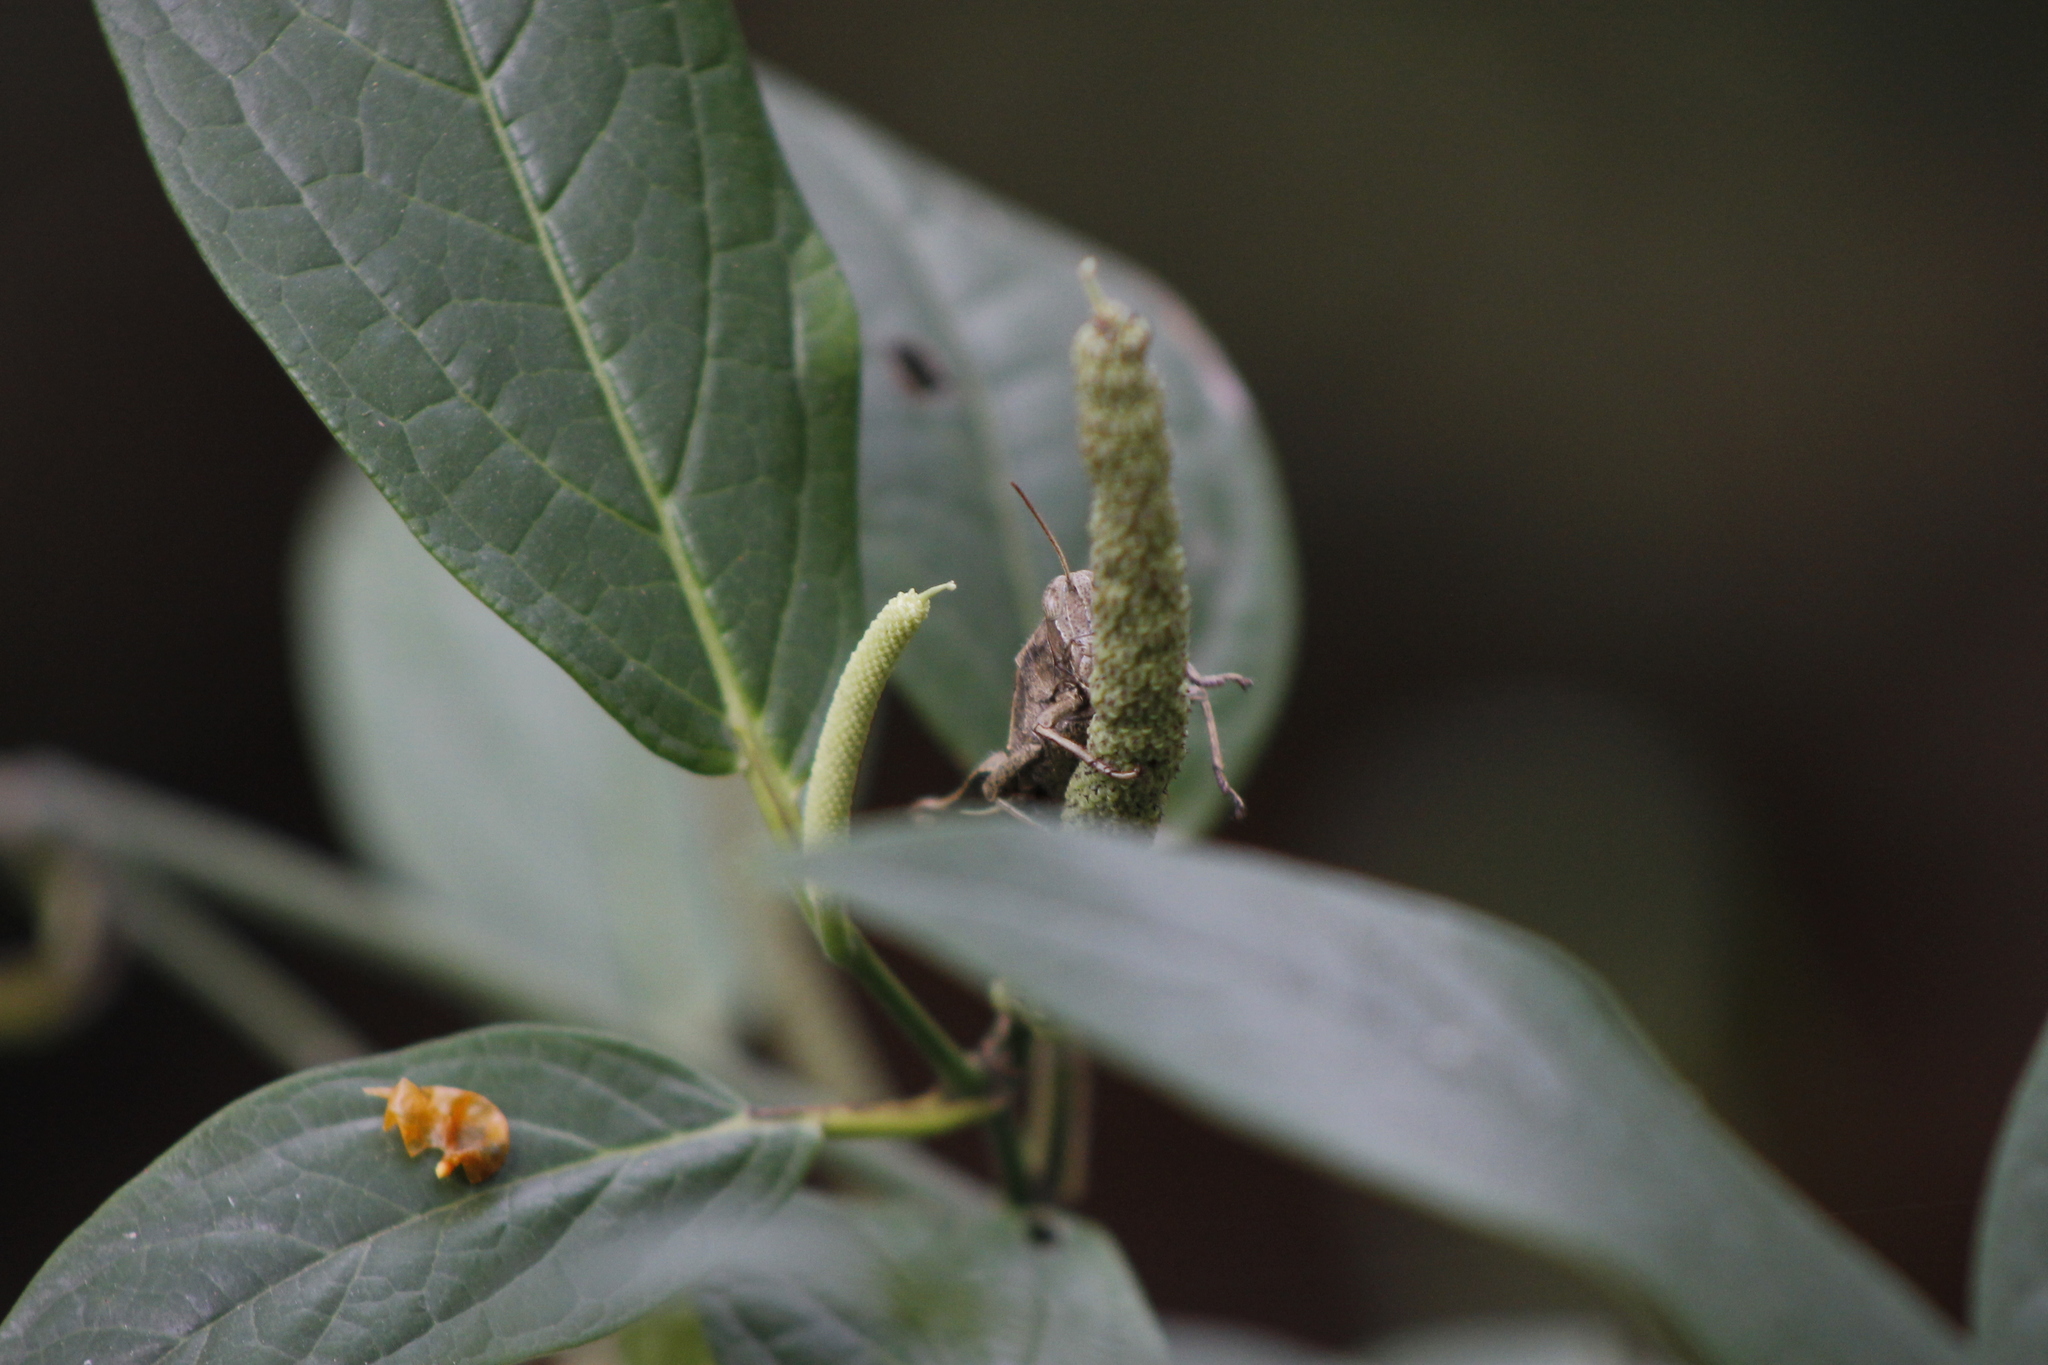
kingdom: Animalia
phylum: Arthropoda
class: Insecta
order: Orthoptera
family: Acrididae
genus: Abracris
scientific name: Abracris flavolineata
